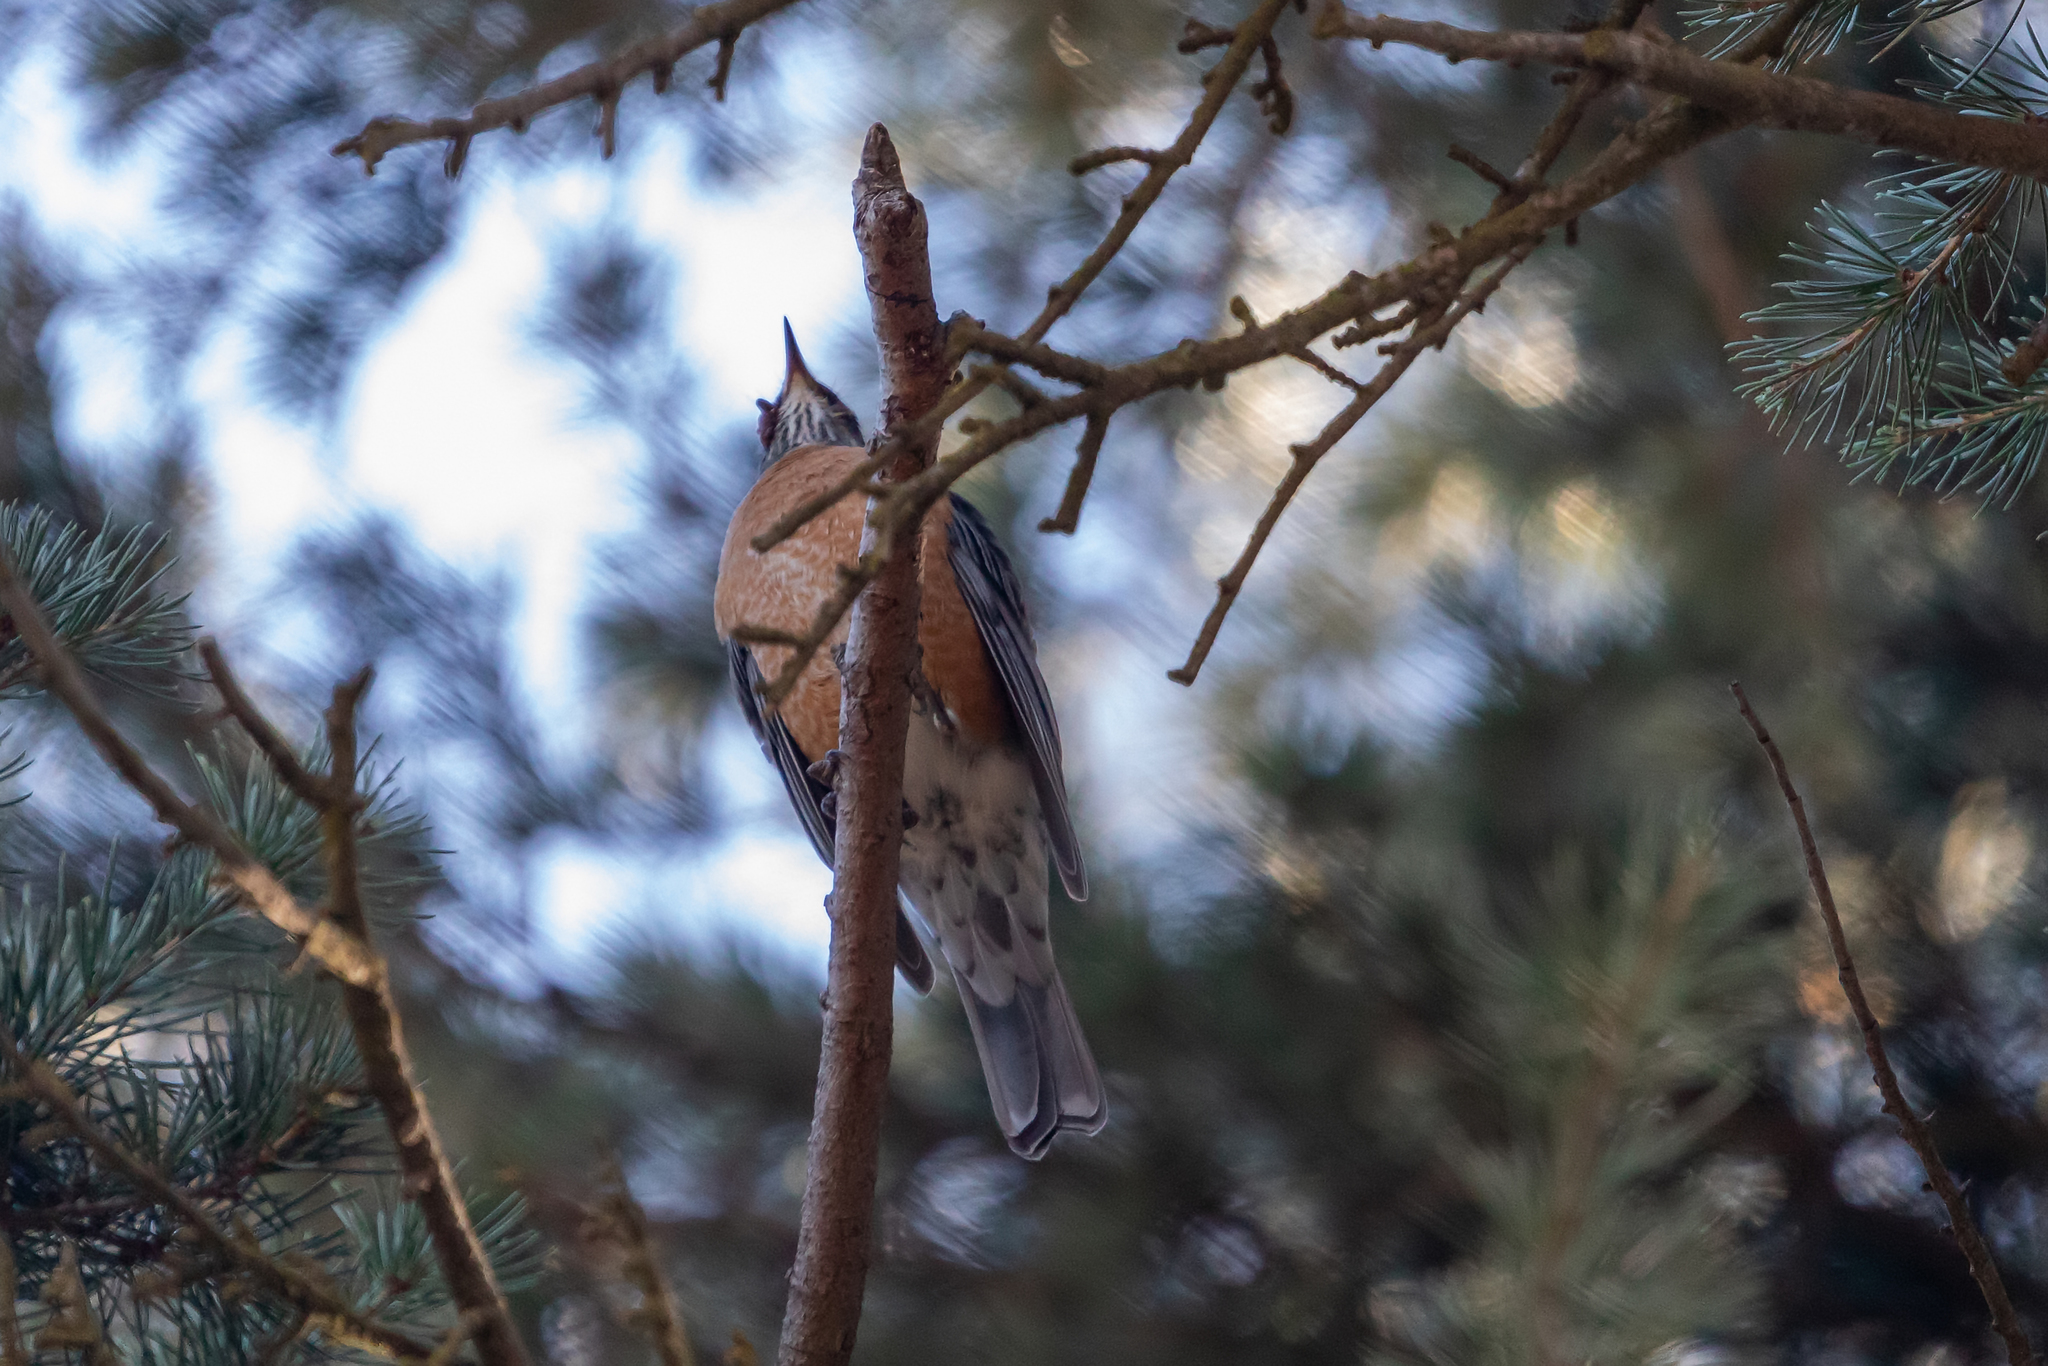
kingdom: Animalia
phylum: Chordata
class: Aves
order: Passeriformes
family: Turdidae
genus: Turdus
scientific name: Turdus migratorius
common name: American robin
